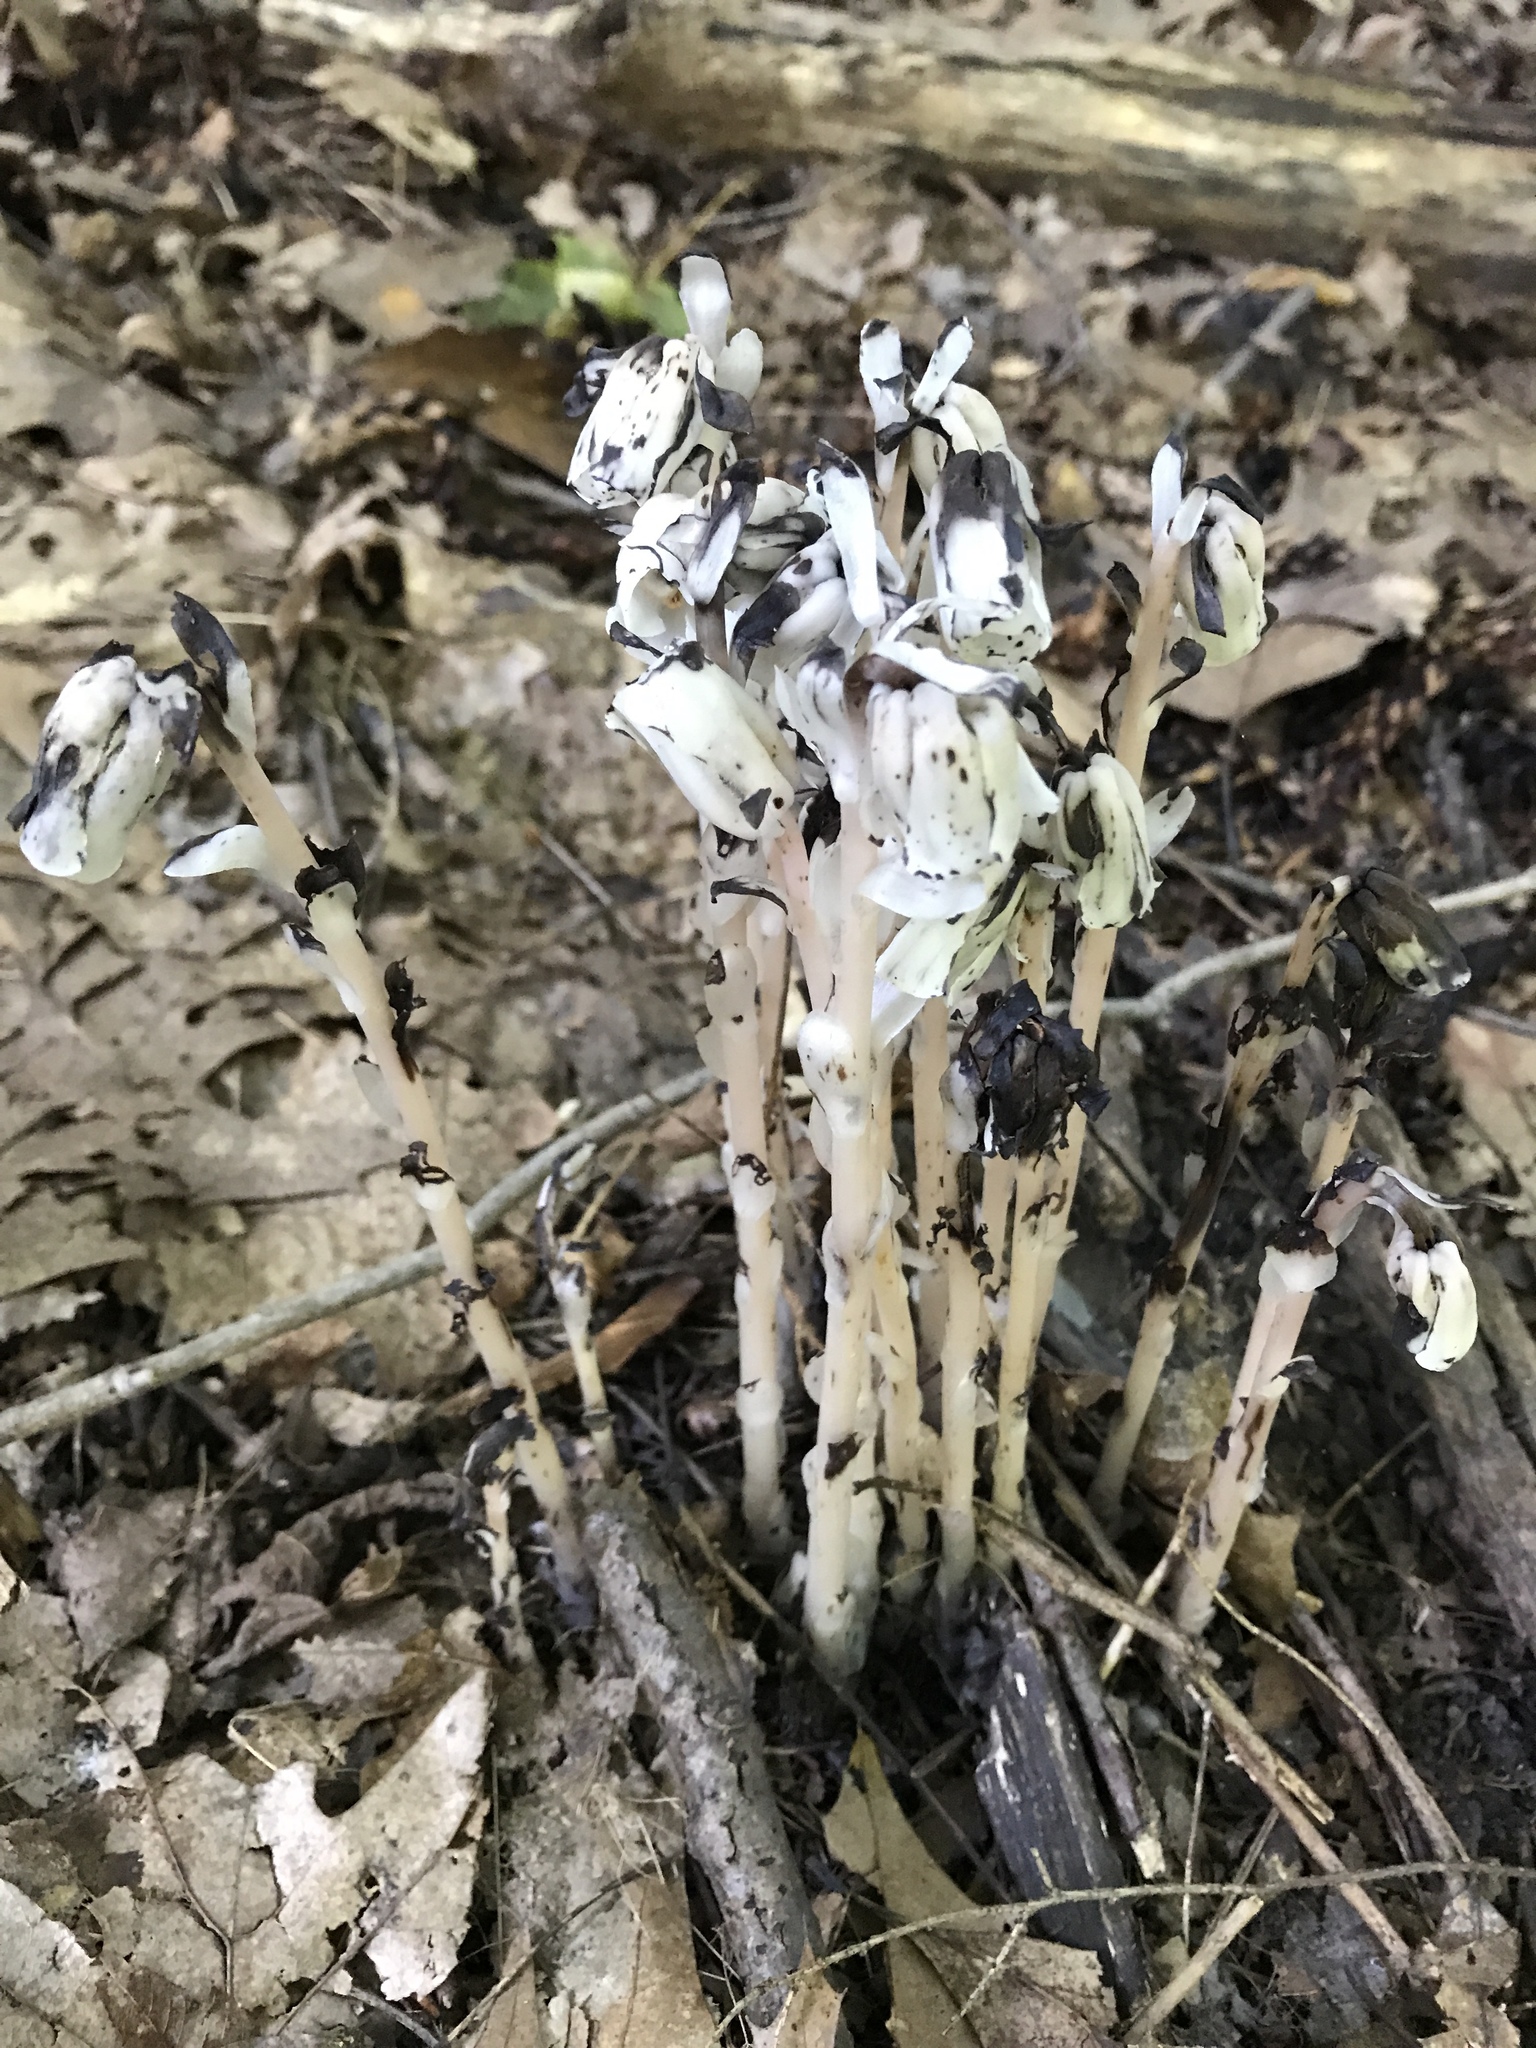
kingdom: Plantae
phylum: Tracheophyta
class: Magnoliopsida
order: Ericales
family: Ericaceae
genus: Monotropa
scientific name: Monotropa uniflora
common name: Convulsion root
